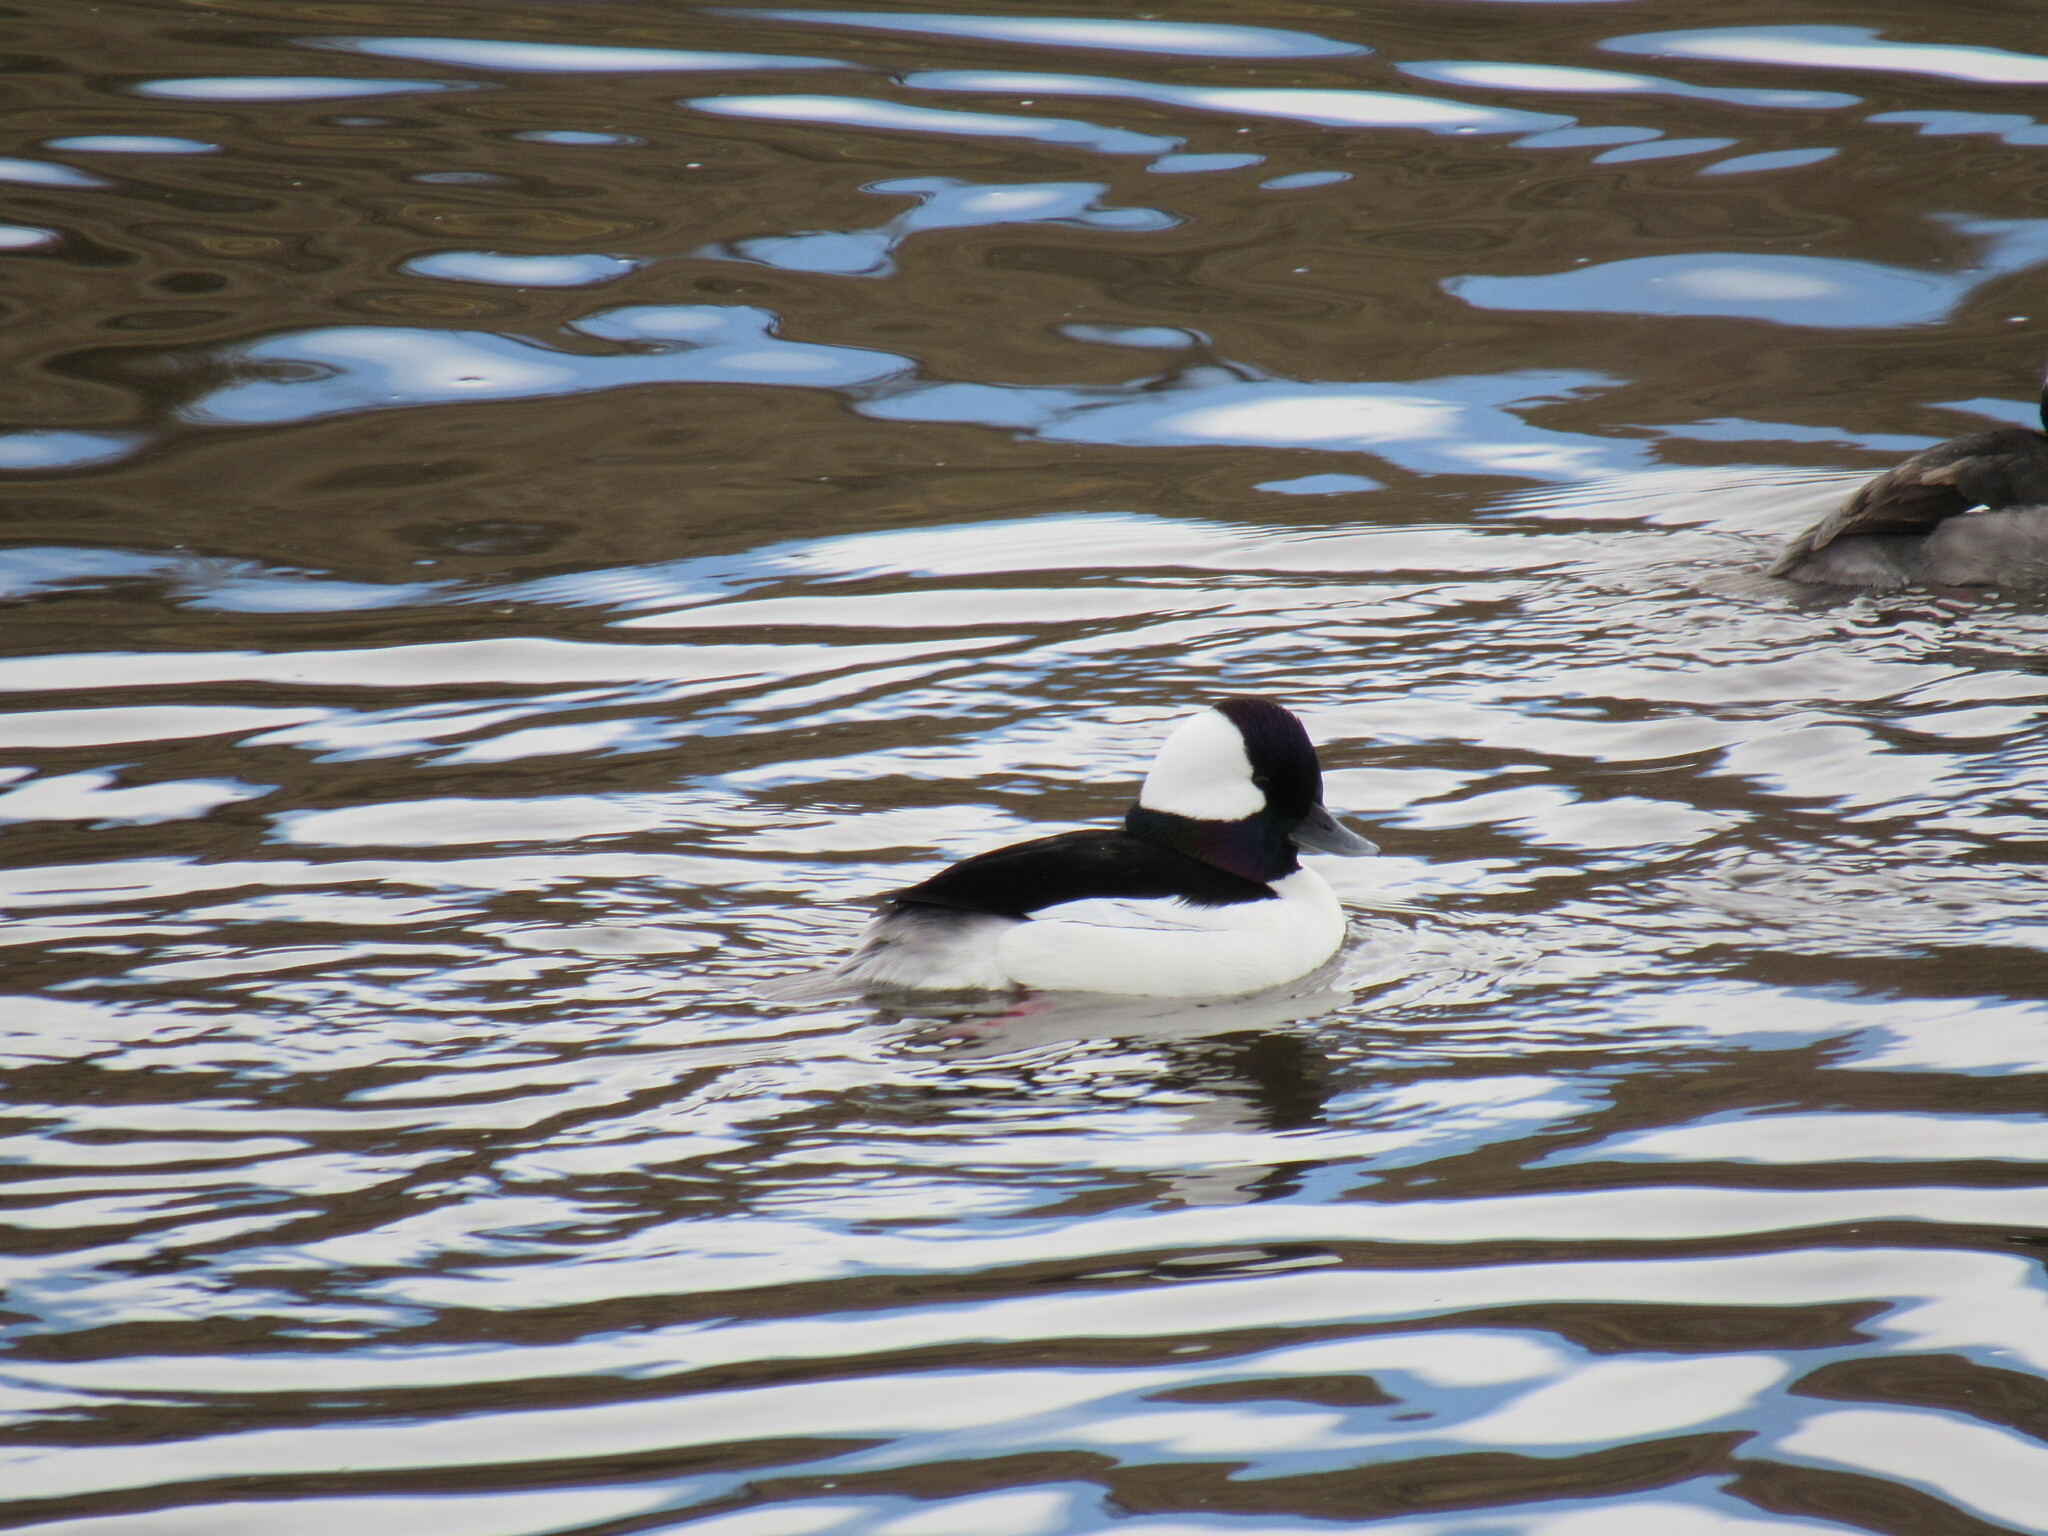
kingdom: Animalia
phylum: Chordata
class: Aves
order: Anseriformes
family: Anatidae
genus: Bucephala
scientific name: Bucephala albeola
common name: Bufflehead
